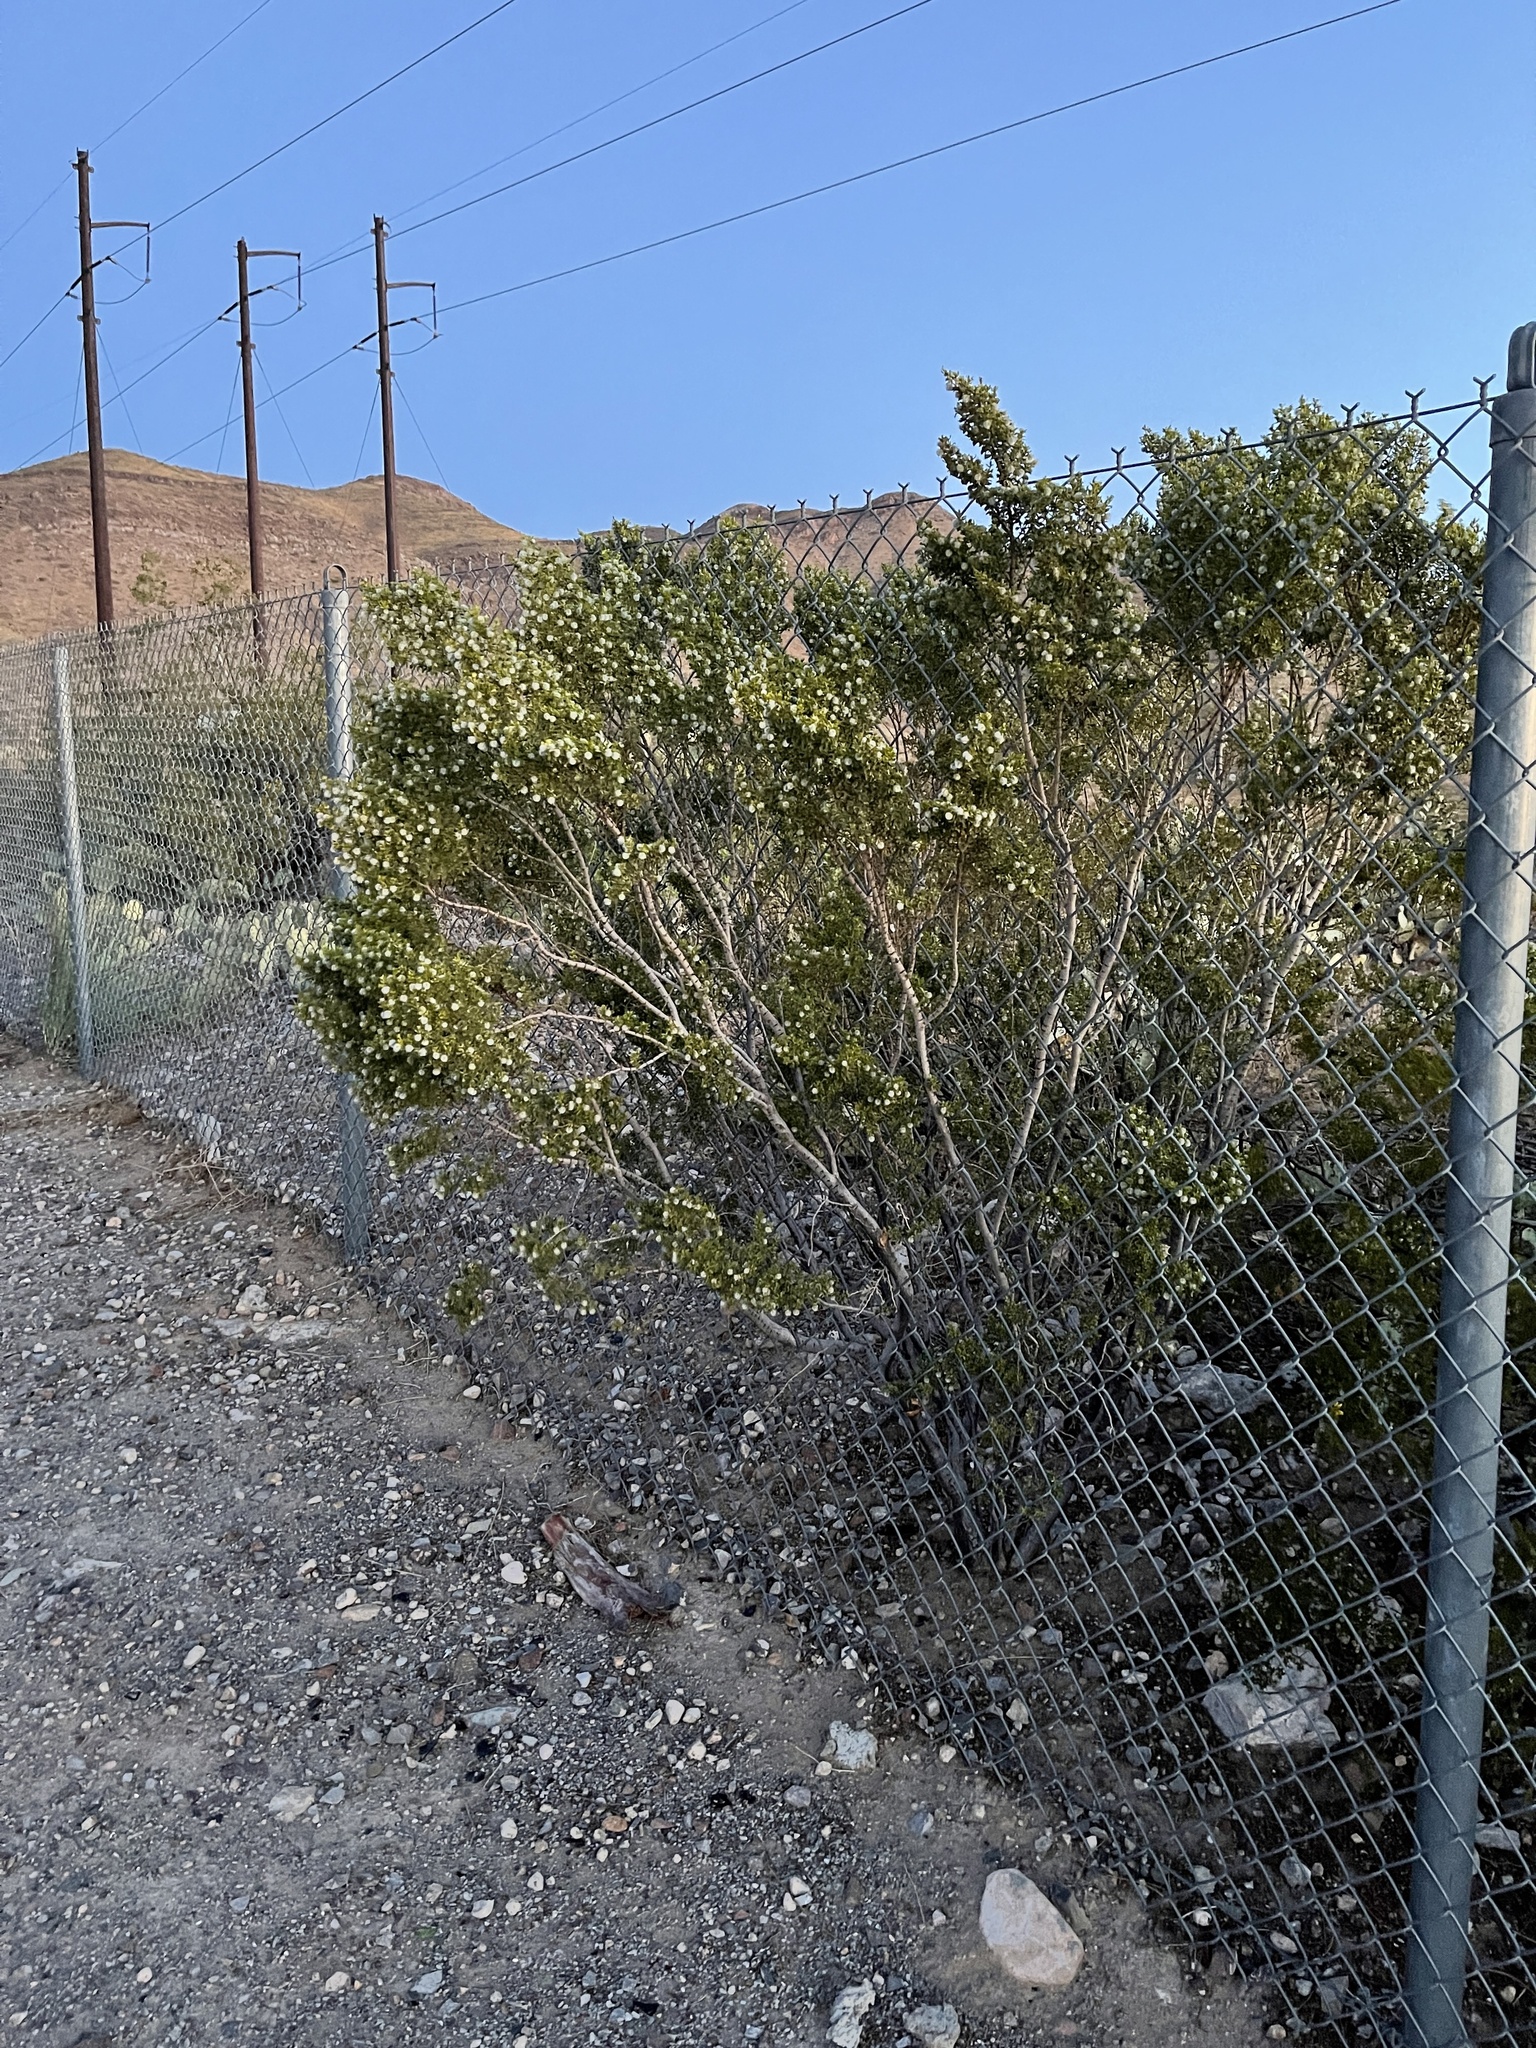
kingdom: Plantae
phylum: Tracheophyta
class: Magnoliopsida
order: Zygophyllales
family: Zygophyllaceae
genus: Larrea
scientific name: Larrea tridentata
